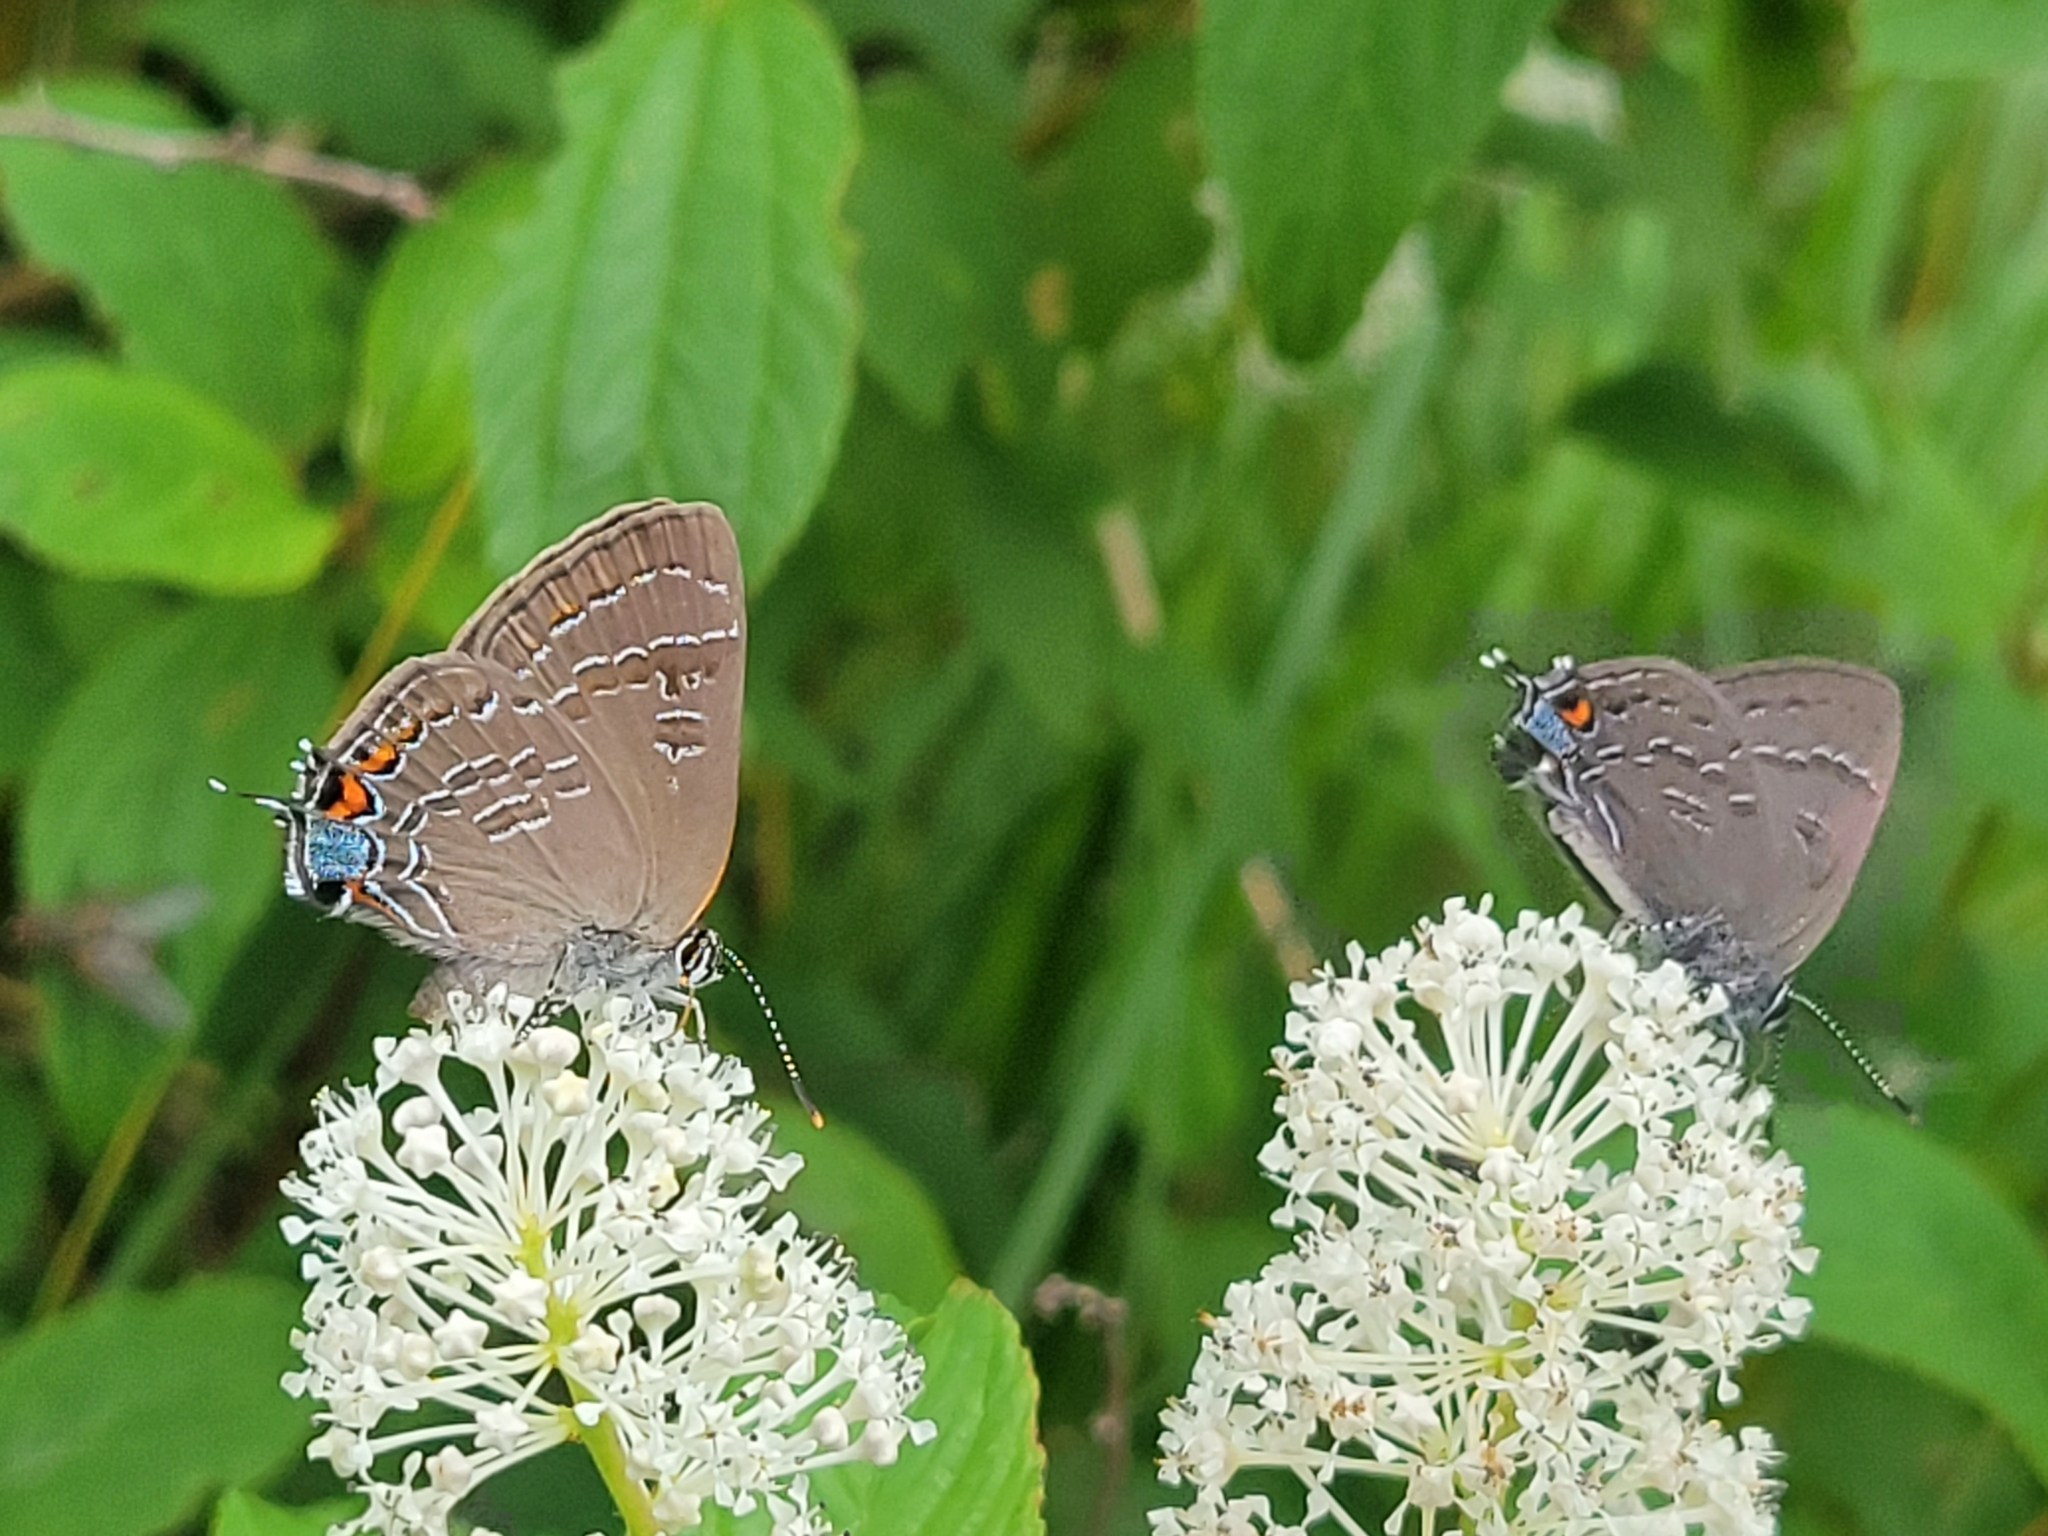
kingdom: Animalia
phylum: Arthropoda
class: Insecta
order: Lepidoptera
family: Lycaenidae
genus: Satyrium
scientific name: Satyrium calanus
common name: Banded hairstreak
